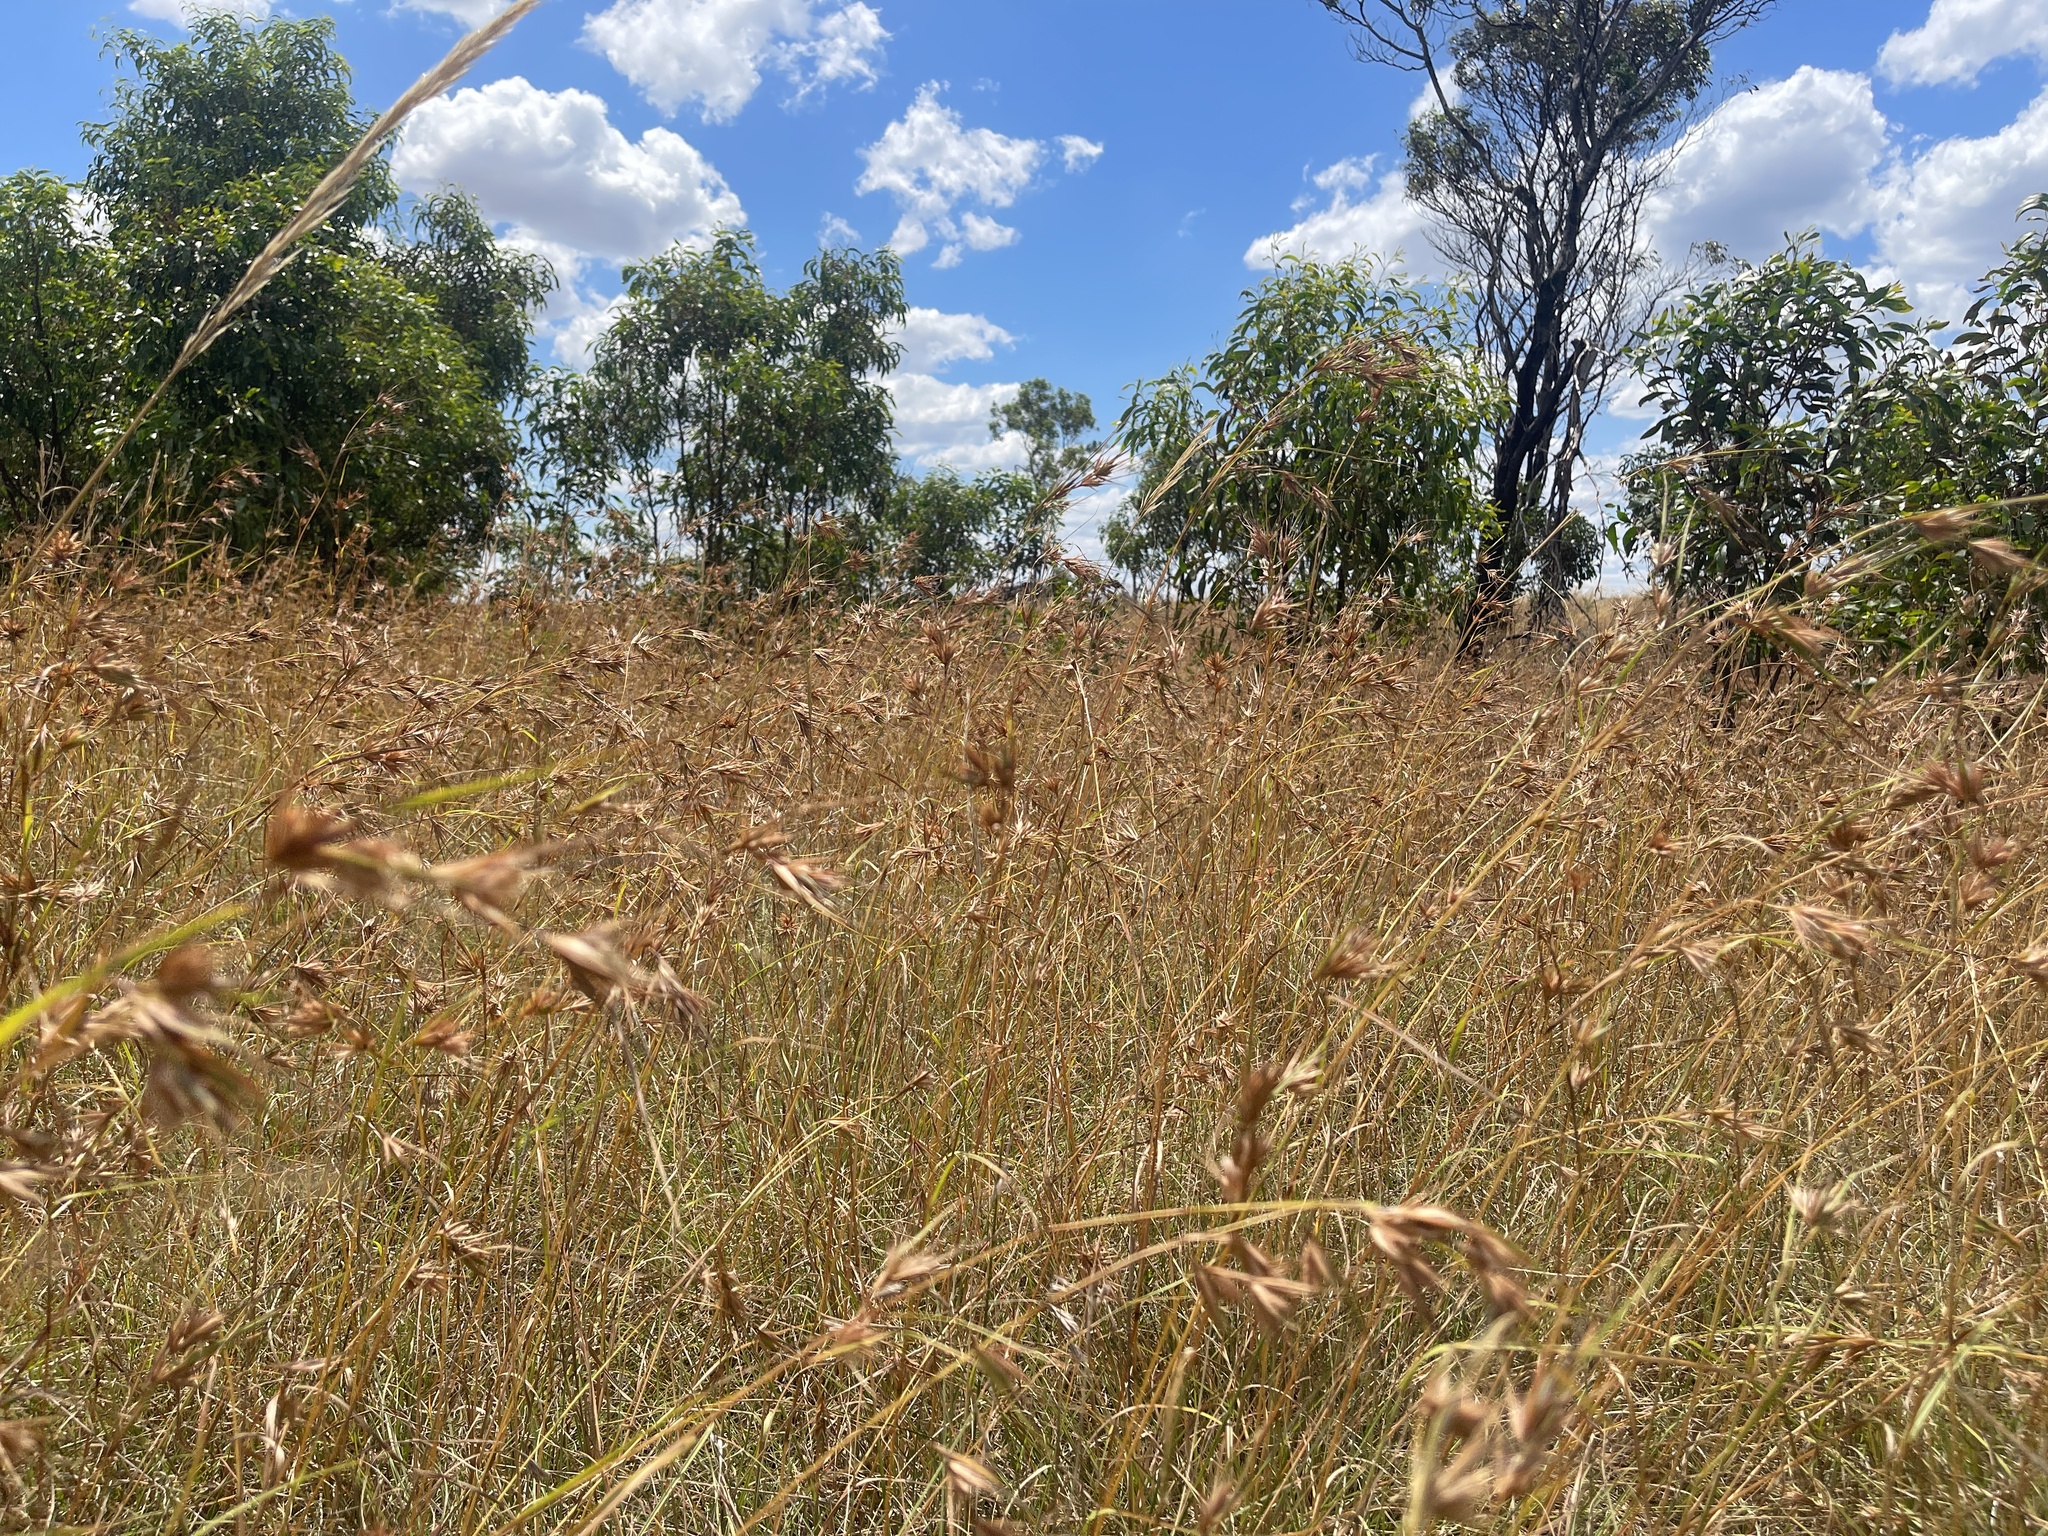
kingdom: Plantae
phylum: Tracheophyta
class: Liliopsida
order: Poales
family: Poaceae
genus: Themeda
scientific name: Themeda triandra
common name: Kangaroo grass
